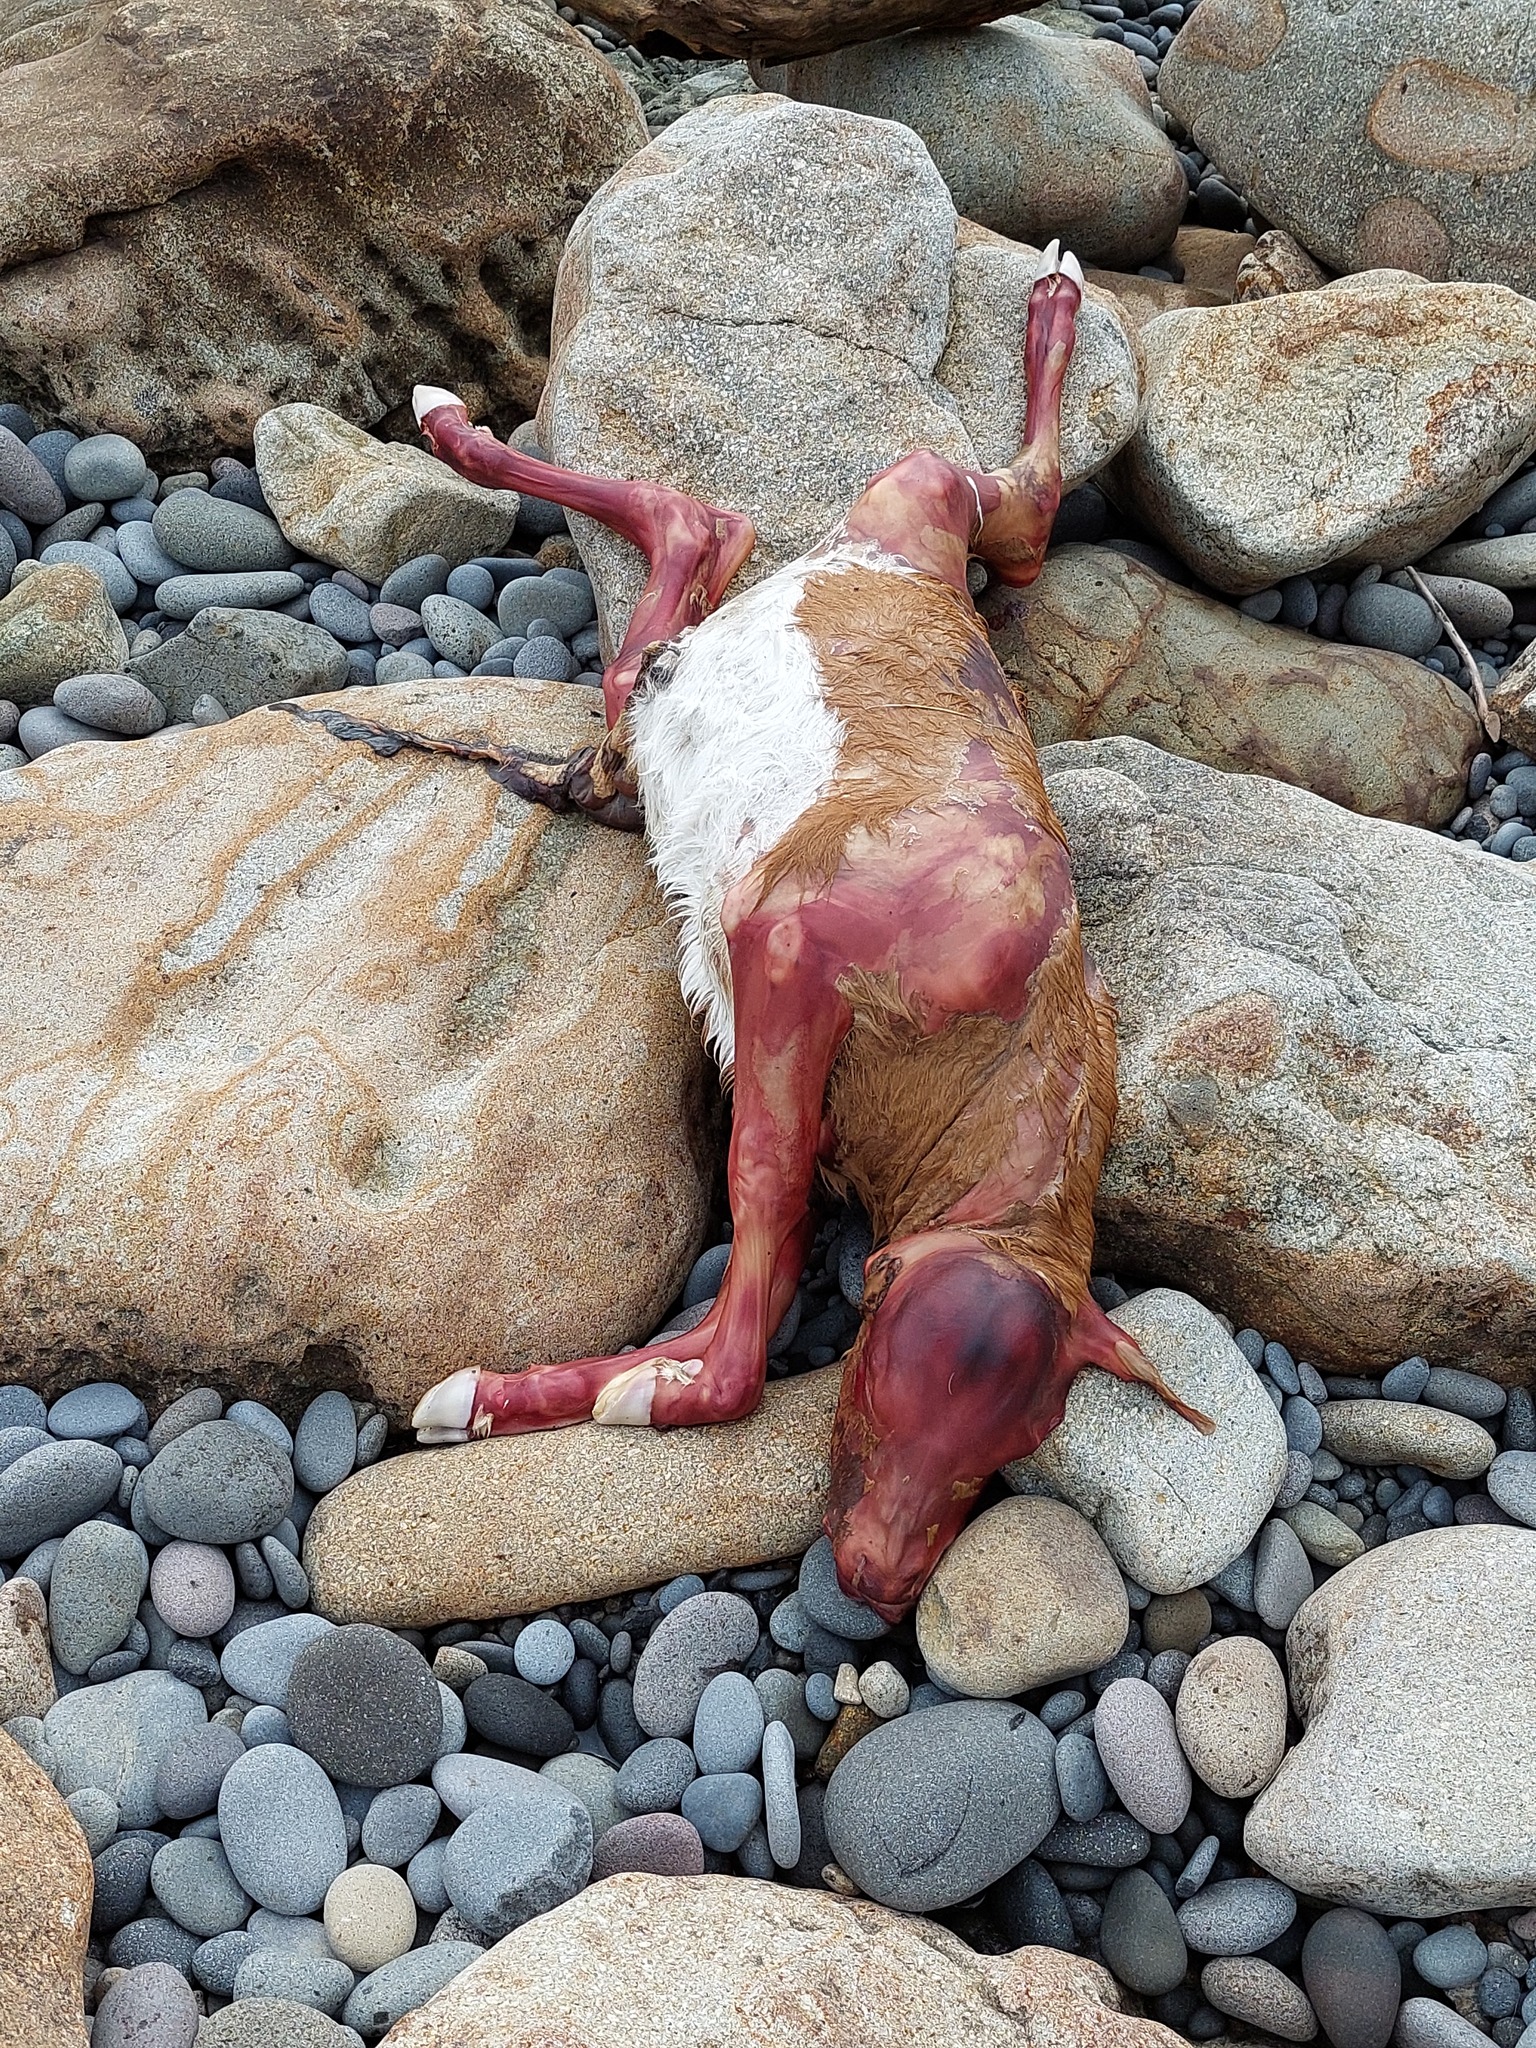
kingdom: Animalia
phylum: Chordata
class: Mammalia
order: Artiodactyla
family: Bovidae
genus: Bos
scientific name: Bos taurus
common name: Domesticated cattle
